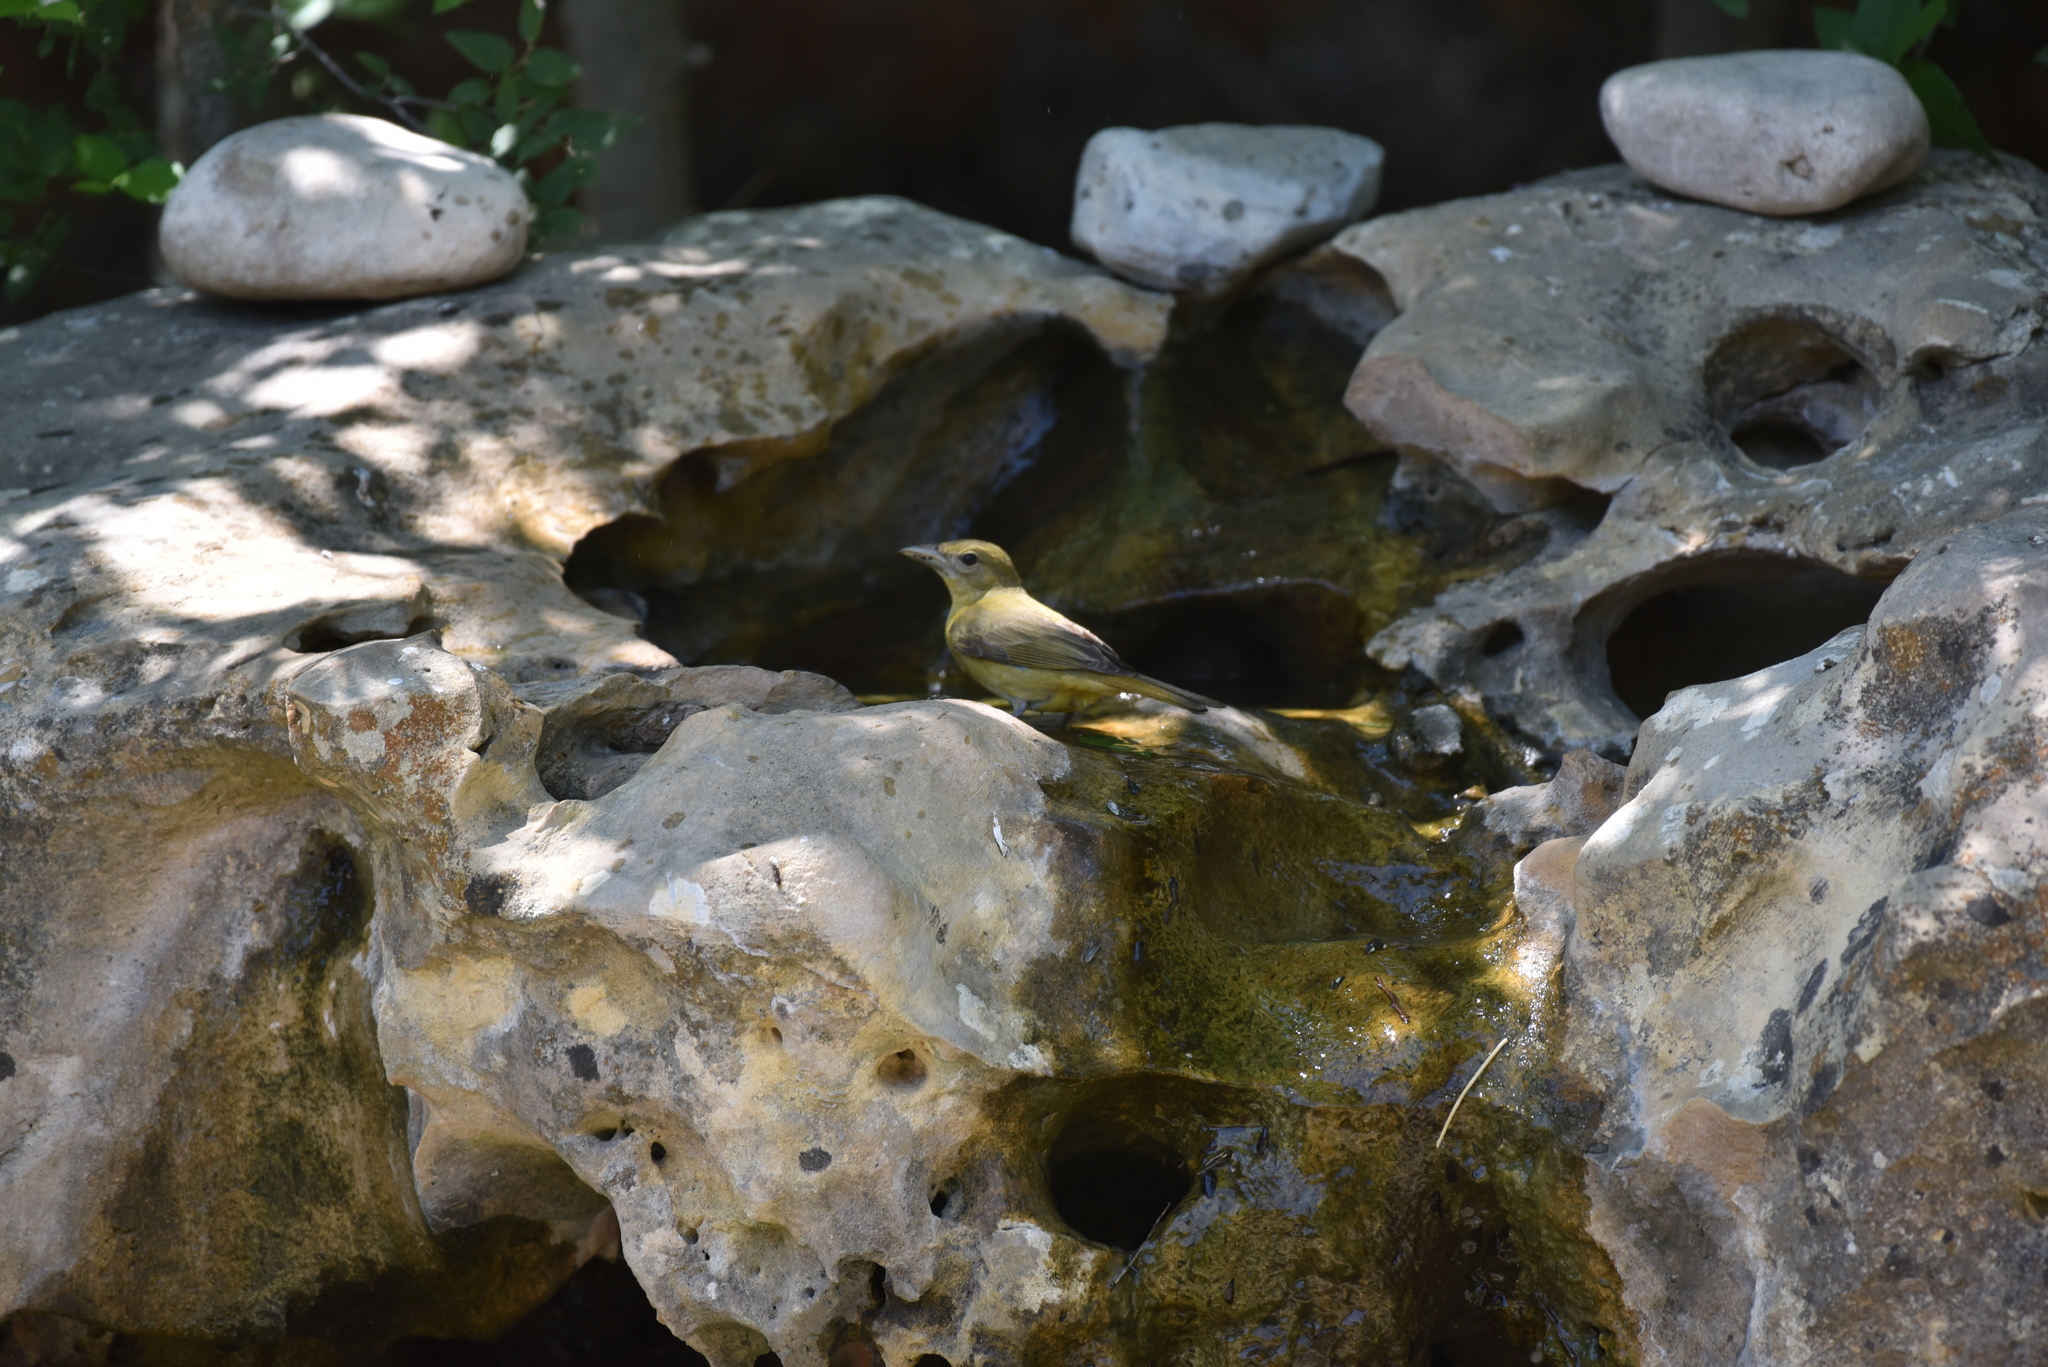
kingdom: Animalia
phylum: Chordata
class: Aves
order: Passeriformes
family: Cardinalidae
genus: Piranga
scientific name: Piranga rubra
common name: Summer tanager
